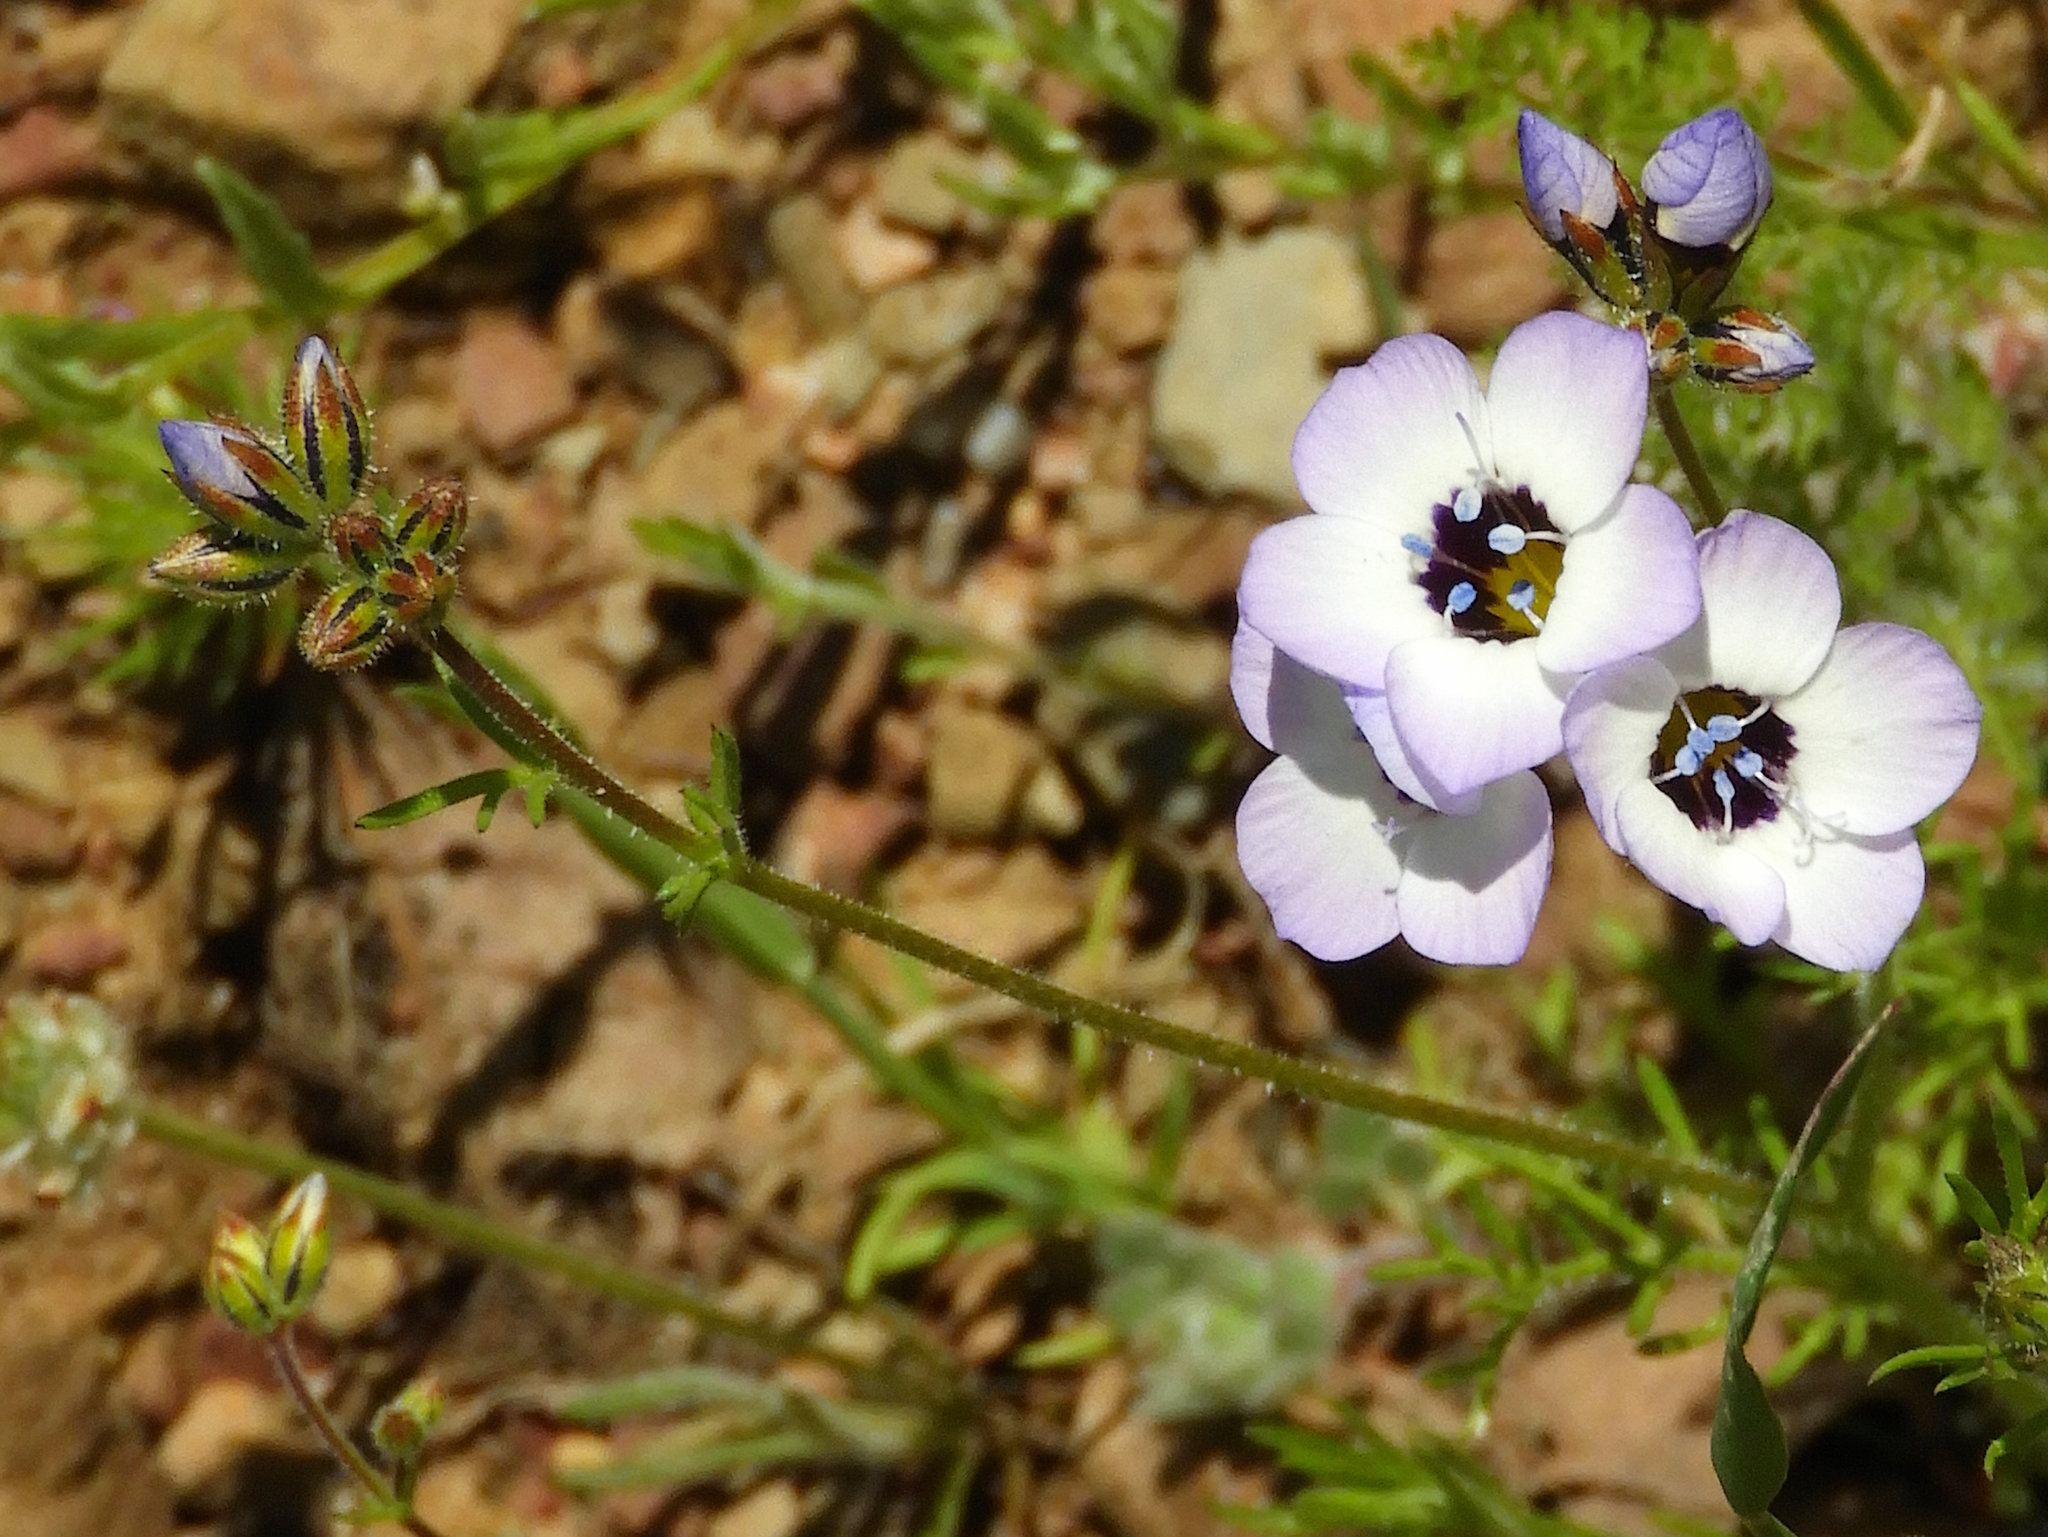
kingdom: Plantae
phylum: Tracheophyta
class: Magnoliopsida
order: Ericales
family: Polemoniaceae
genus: Gilia
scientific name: Gilia tricolor
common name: Bird's-eyes
